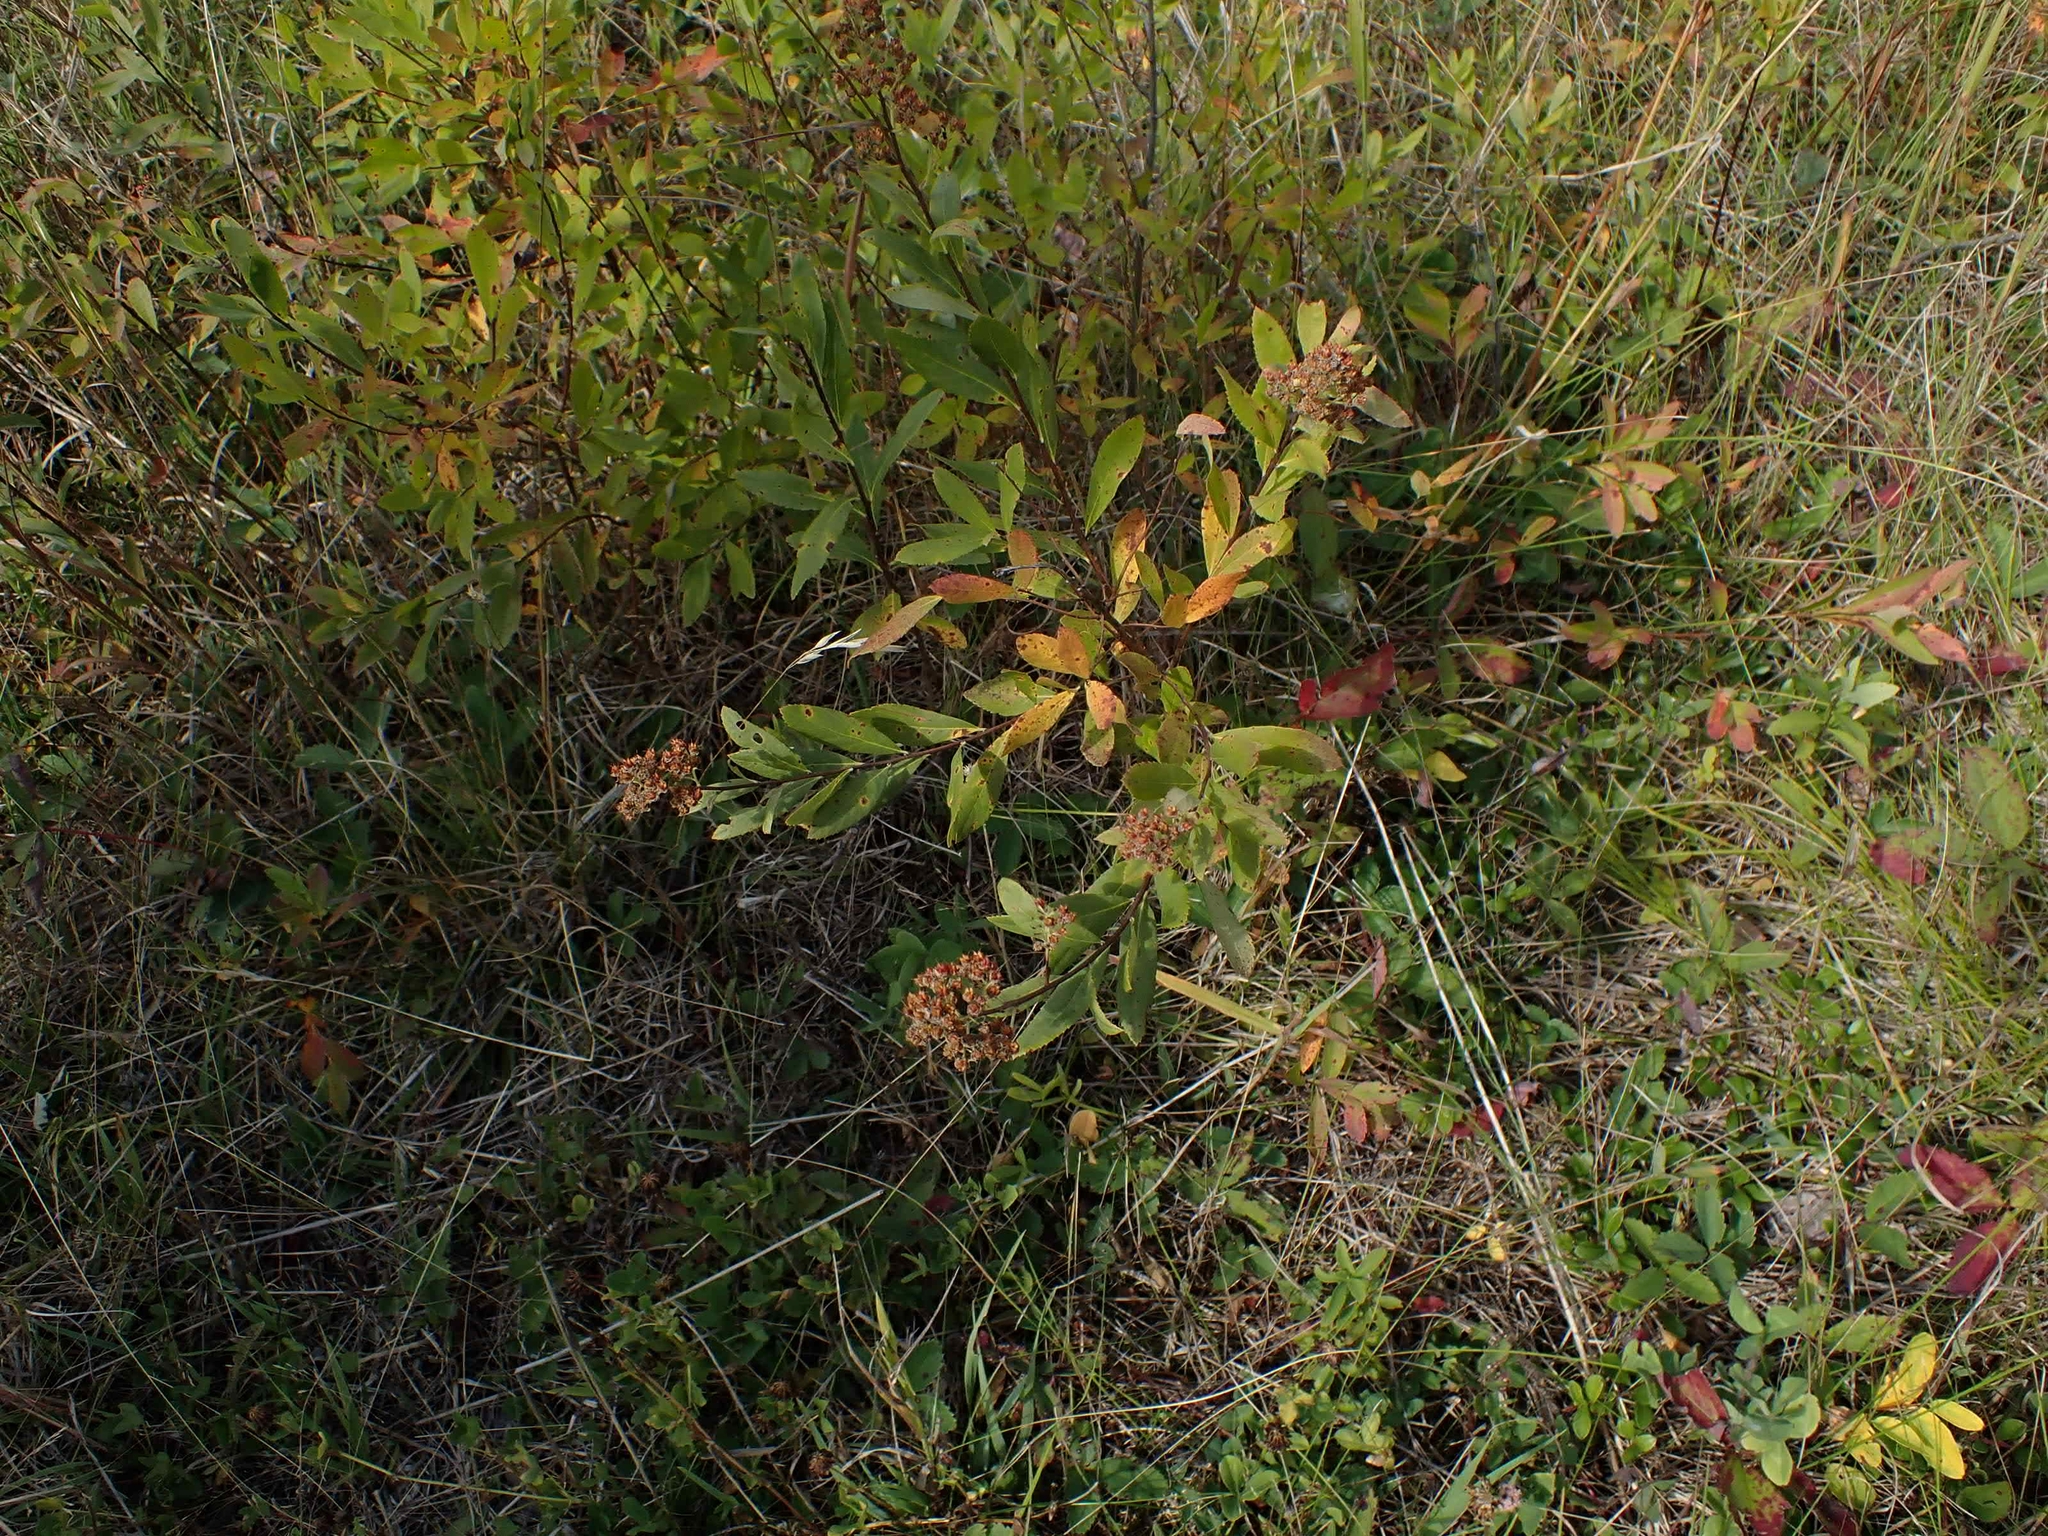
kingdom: Plantae
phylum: Tracheophyta
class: Magnoliopsida
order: Rosales
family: Rosaceae
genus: Spiraea
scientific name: Spiraea alba
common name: Pale bridewort
